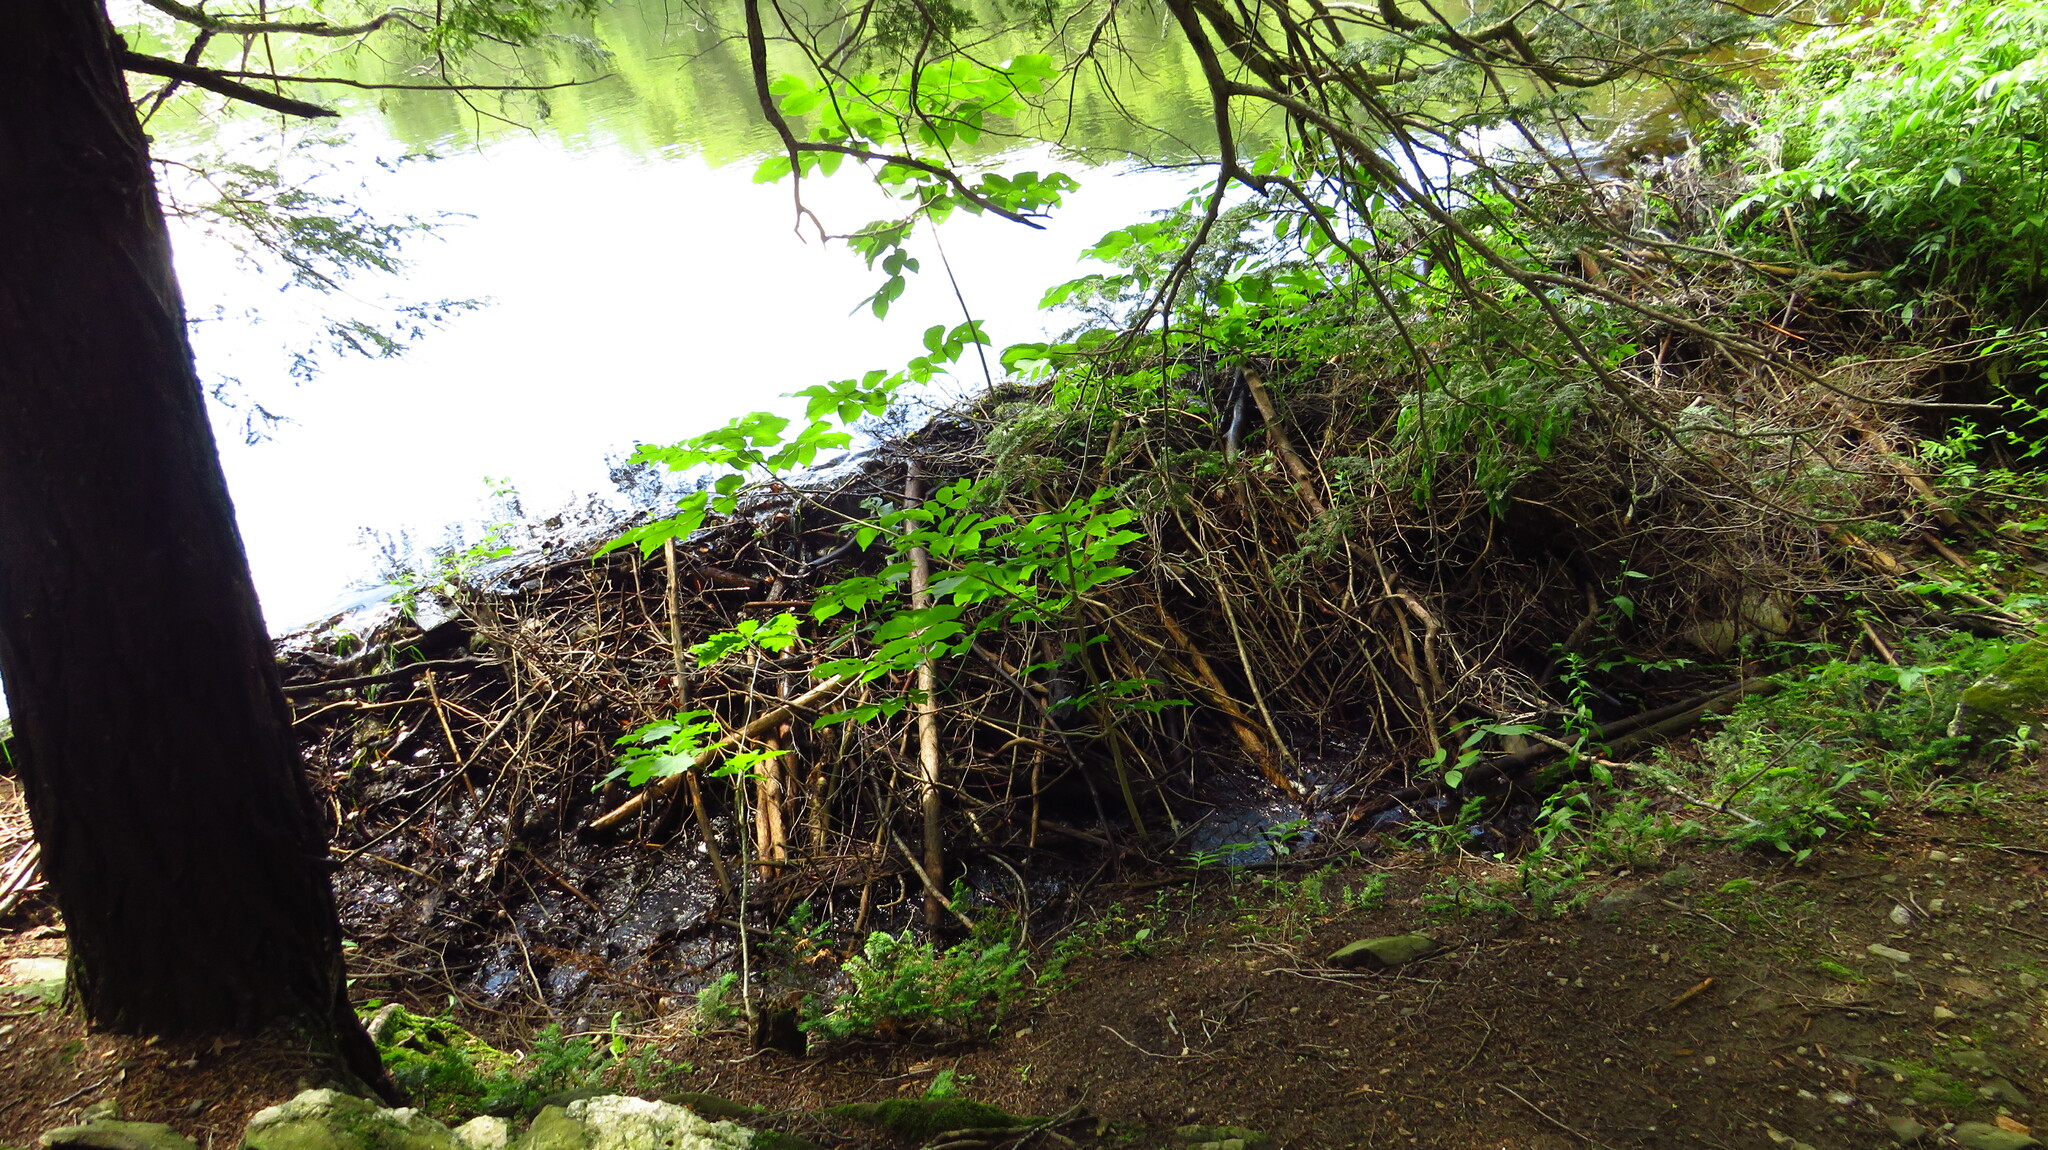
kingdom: Animalia
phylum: Chordata
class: Mammalia
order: Rodentia
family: Castoridae
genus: Castor
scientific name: Castor canadensis
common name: American beaver
